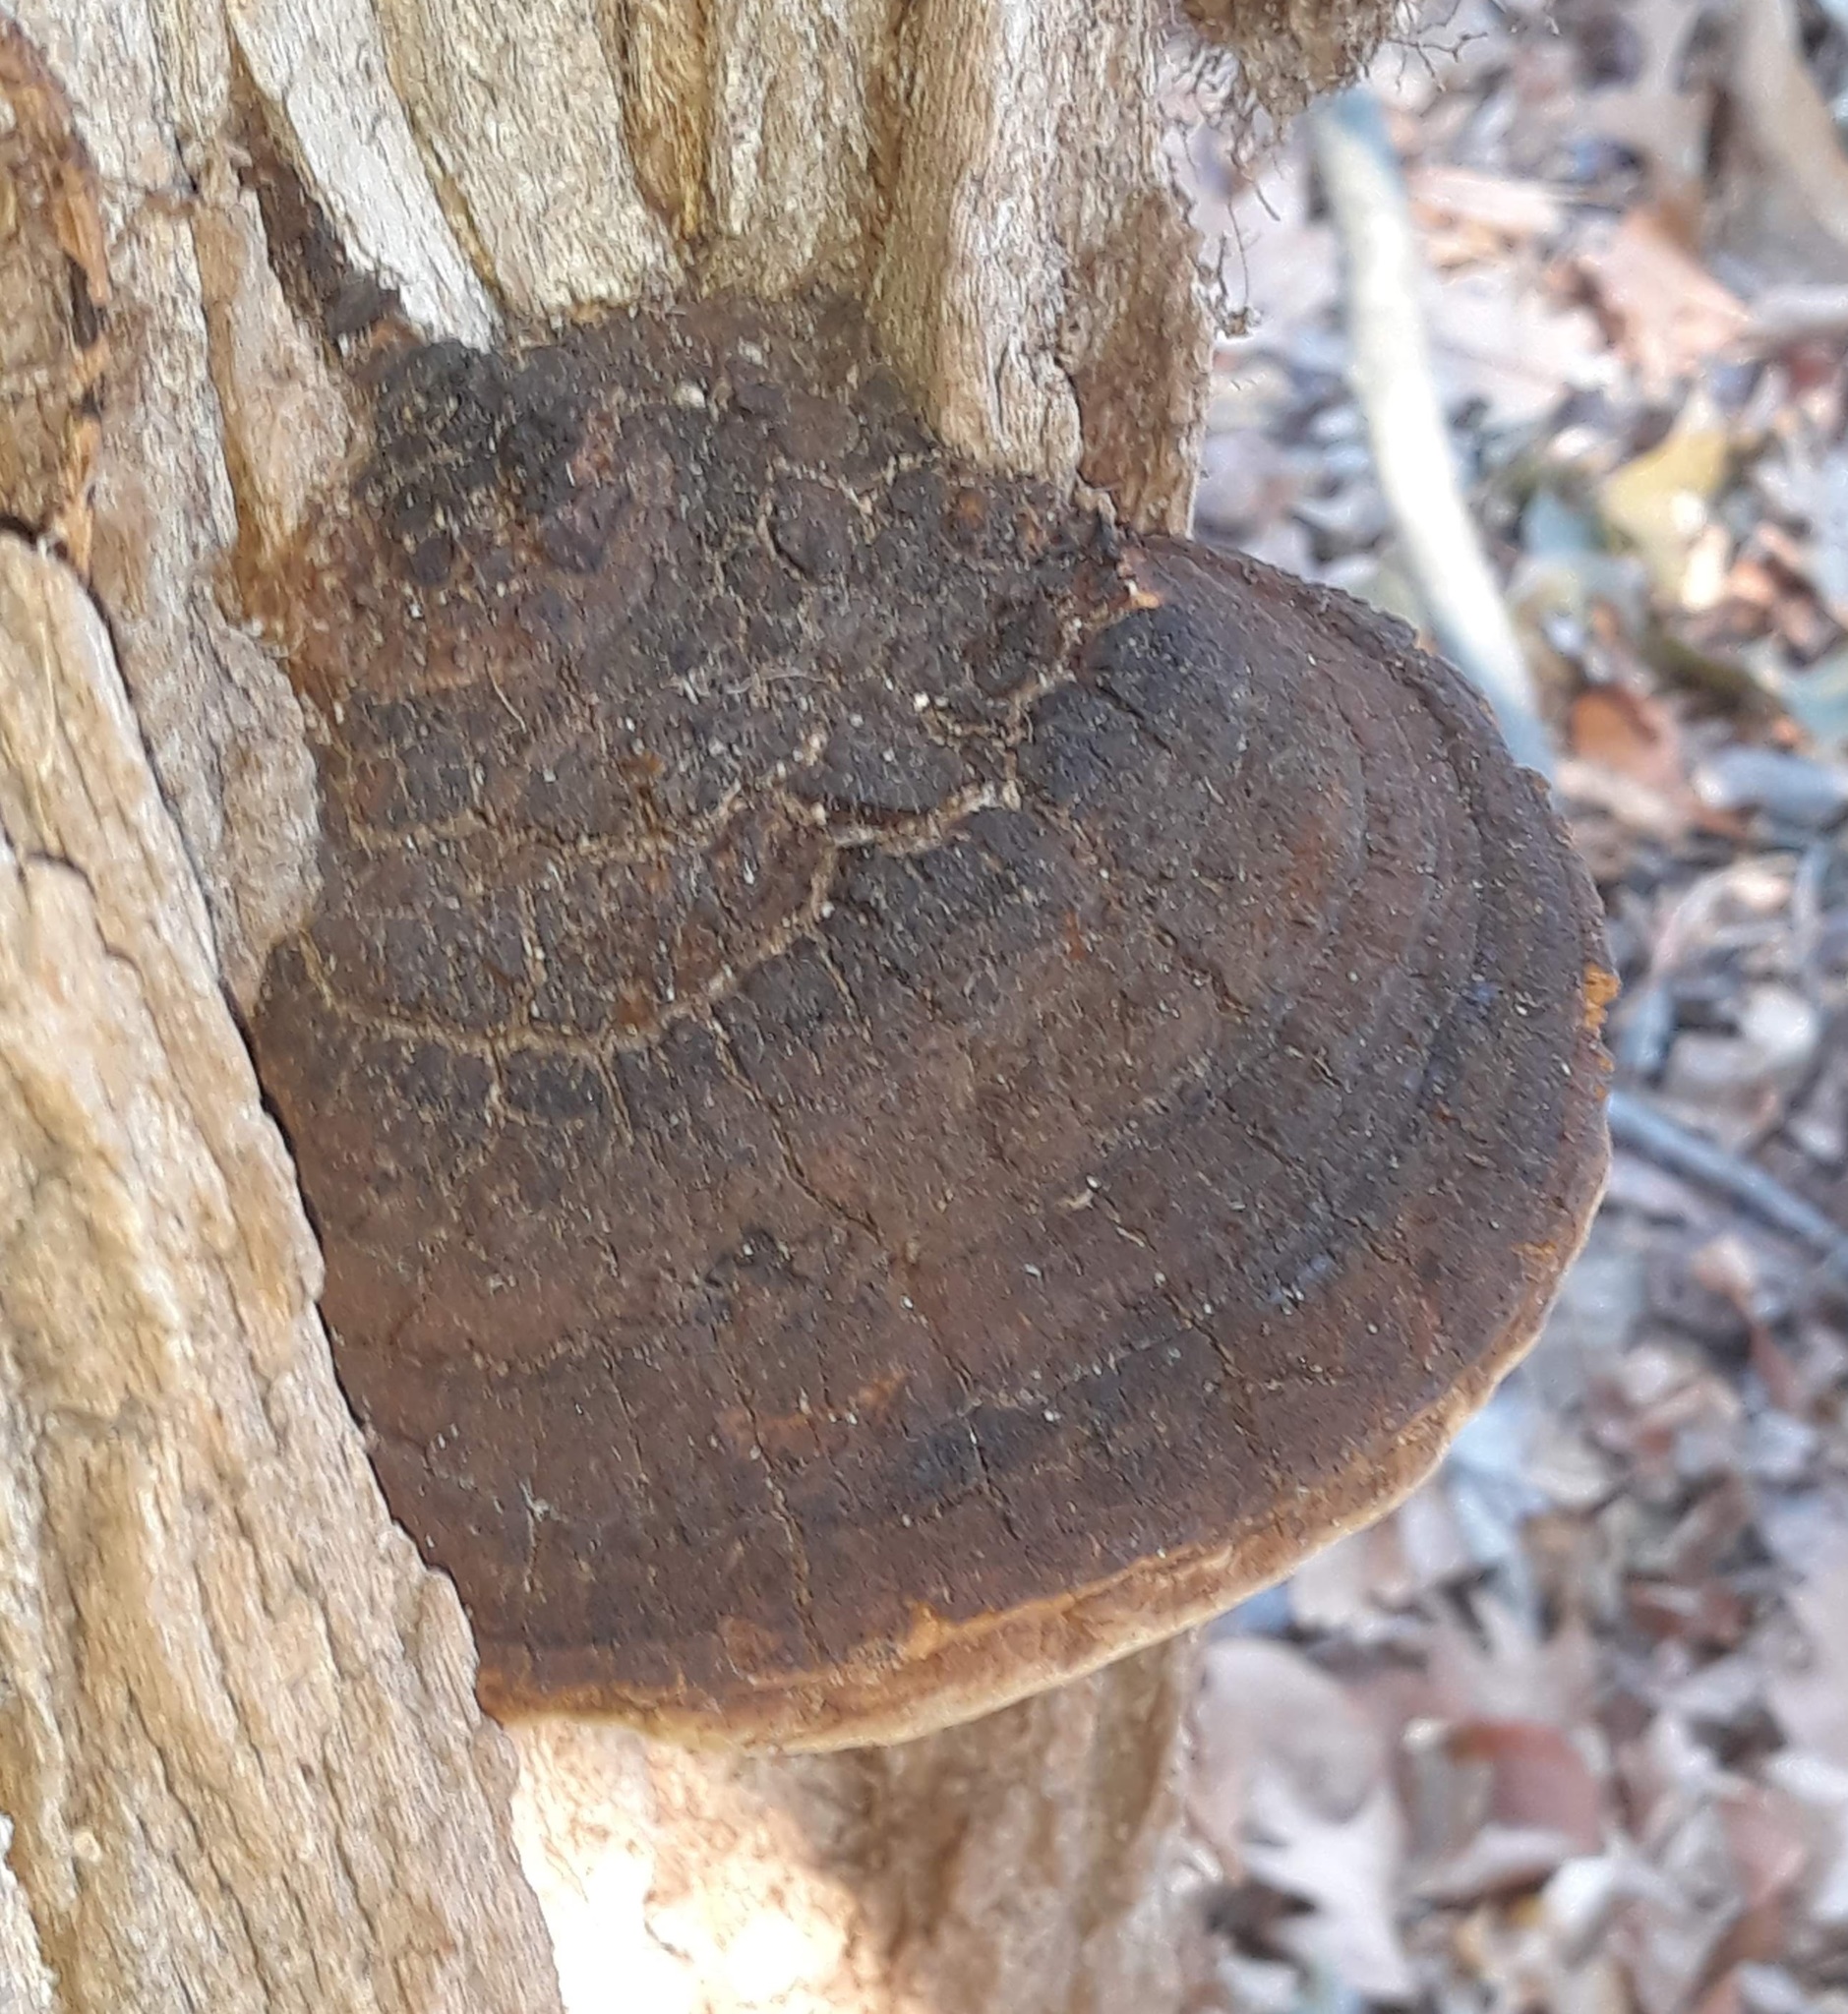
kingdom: Fungi
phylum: Basidiomycota
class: Agaricomycetes
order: Hymenochaetales
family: Hymenochaetaceae
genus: Phellinus
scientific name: Phellinus robiniae
